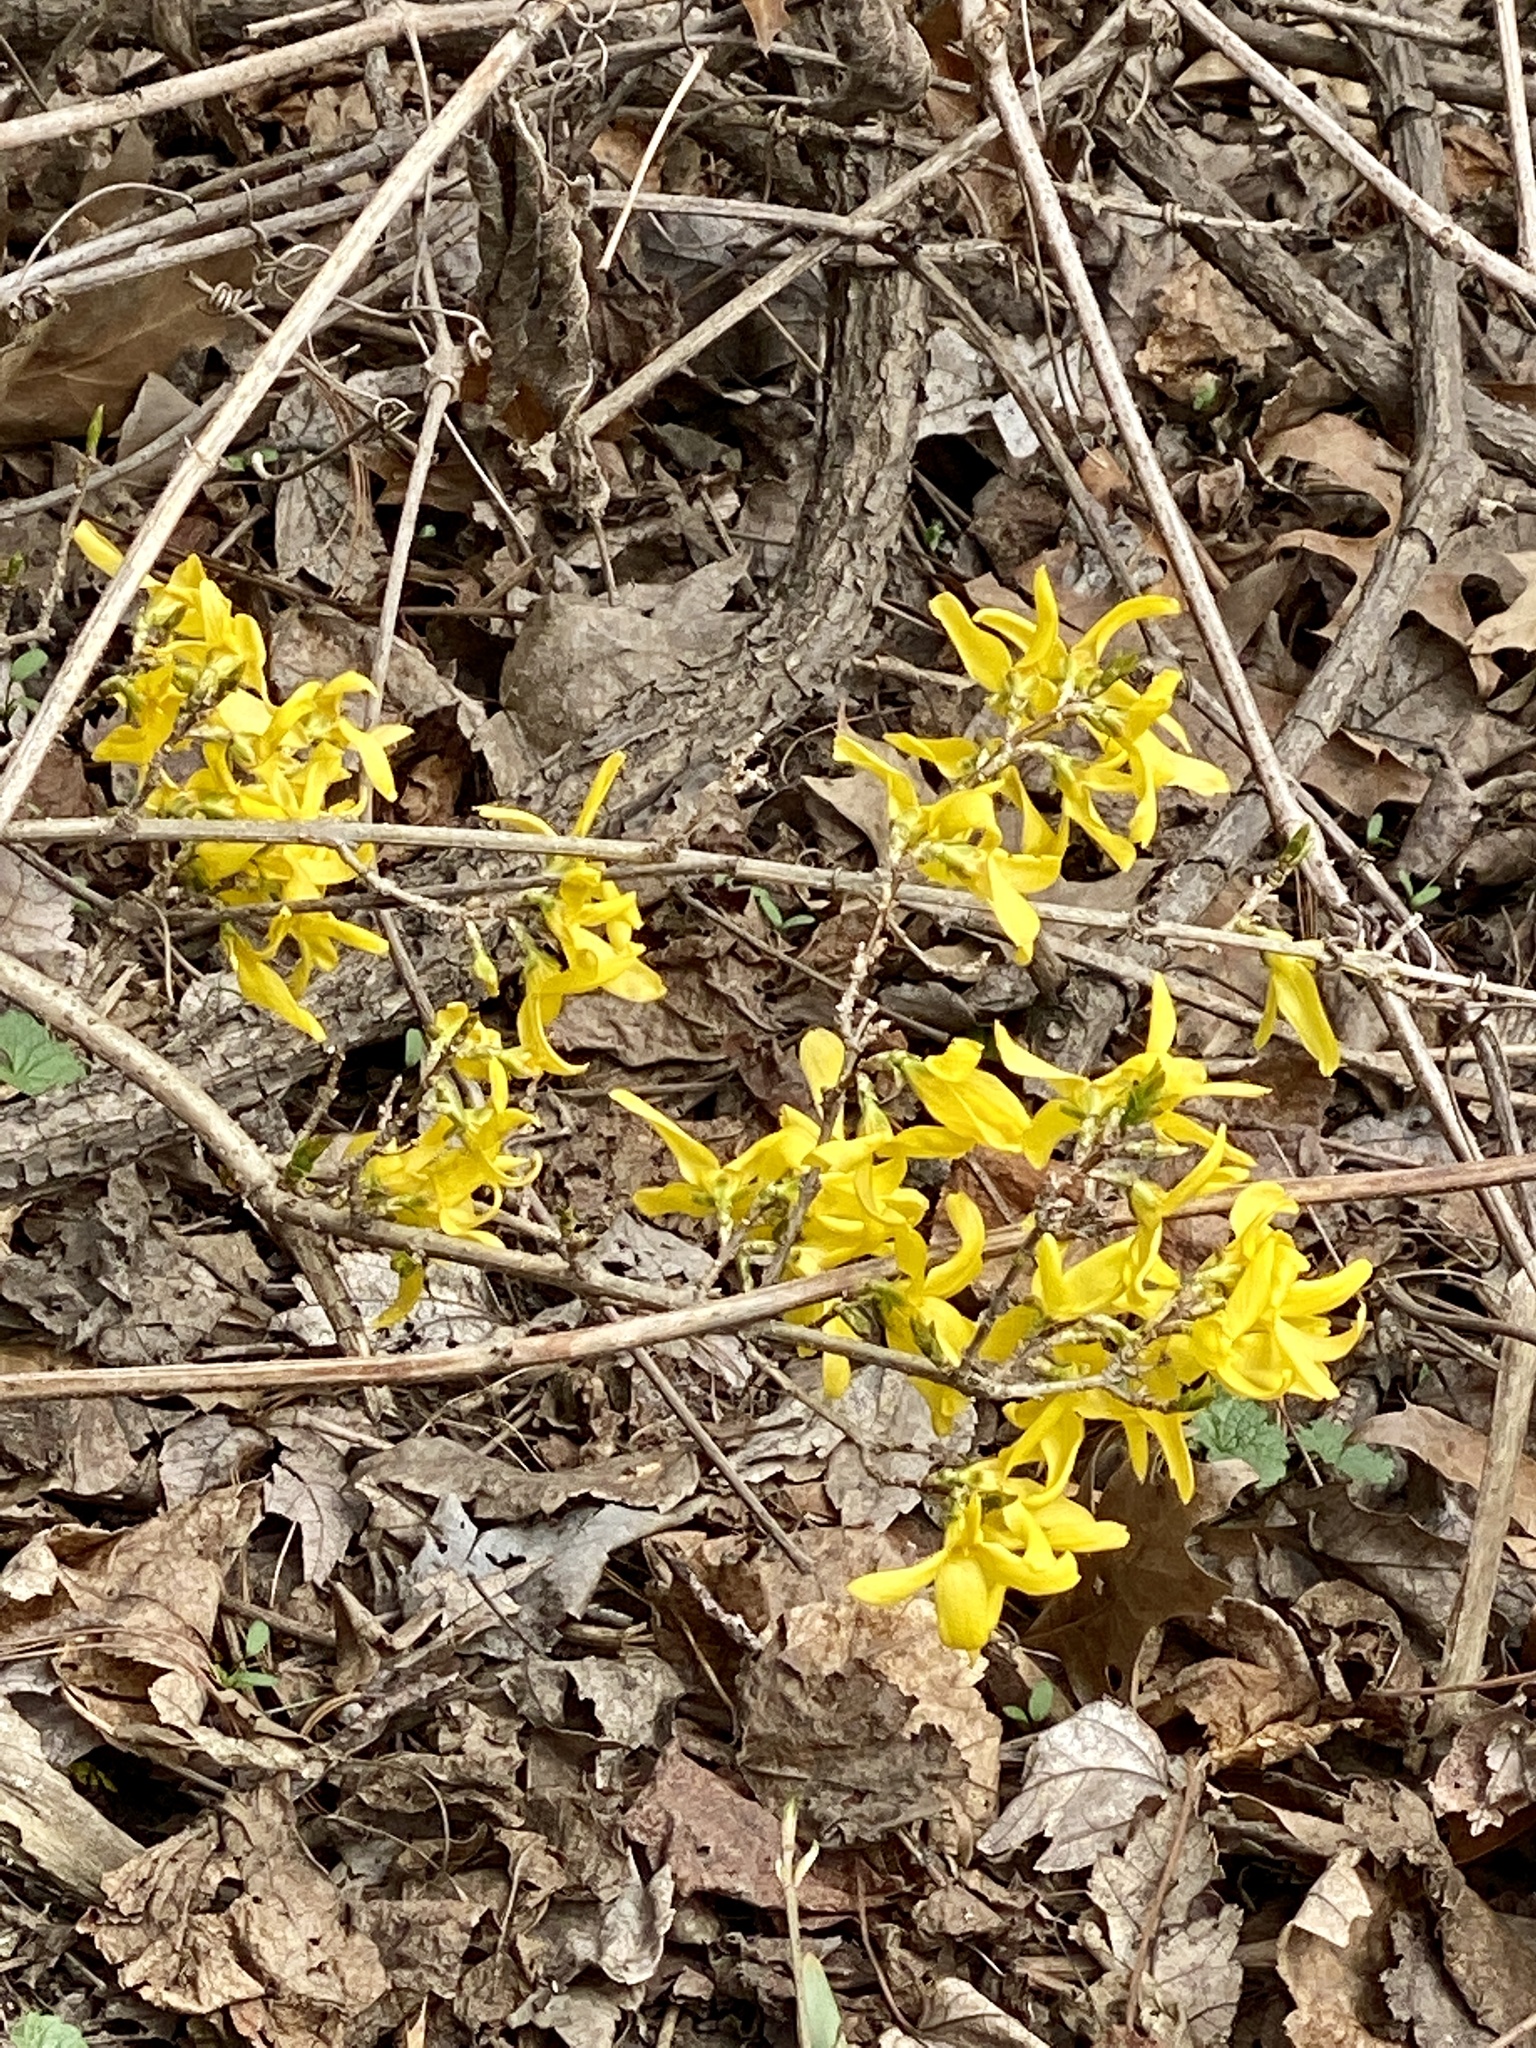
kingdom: Plantae
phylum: Tracheophyta
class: Magnoliopsida
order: Lamiales
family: Oleaceae
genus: Forsythia
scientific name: Forsythia
